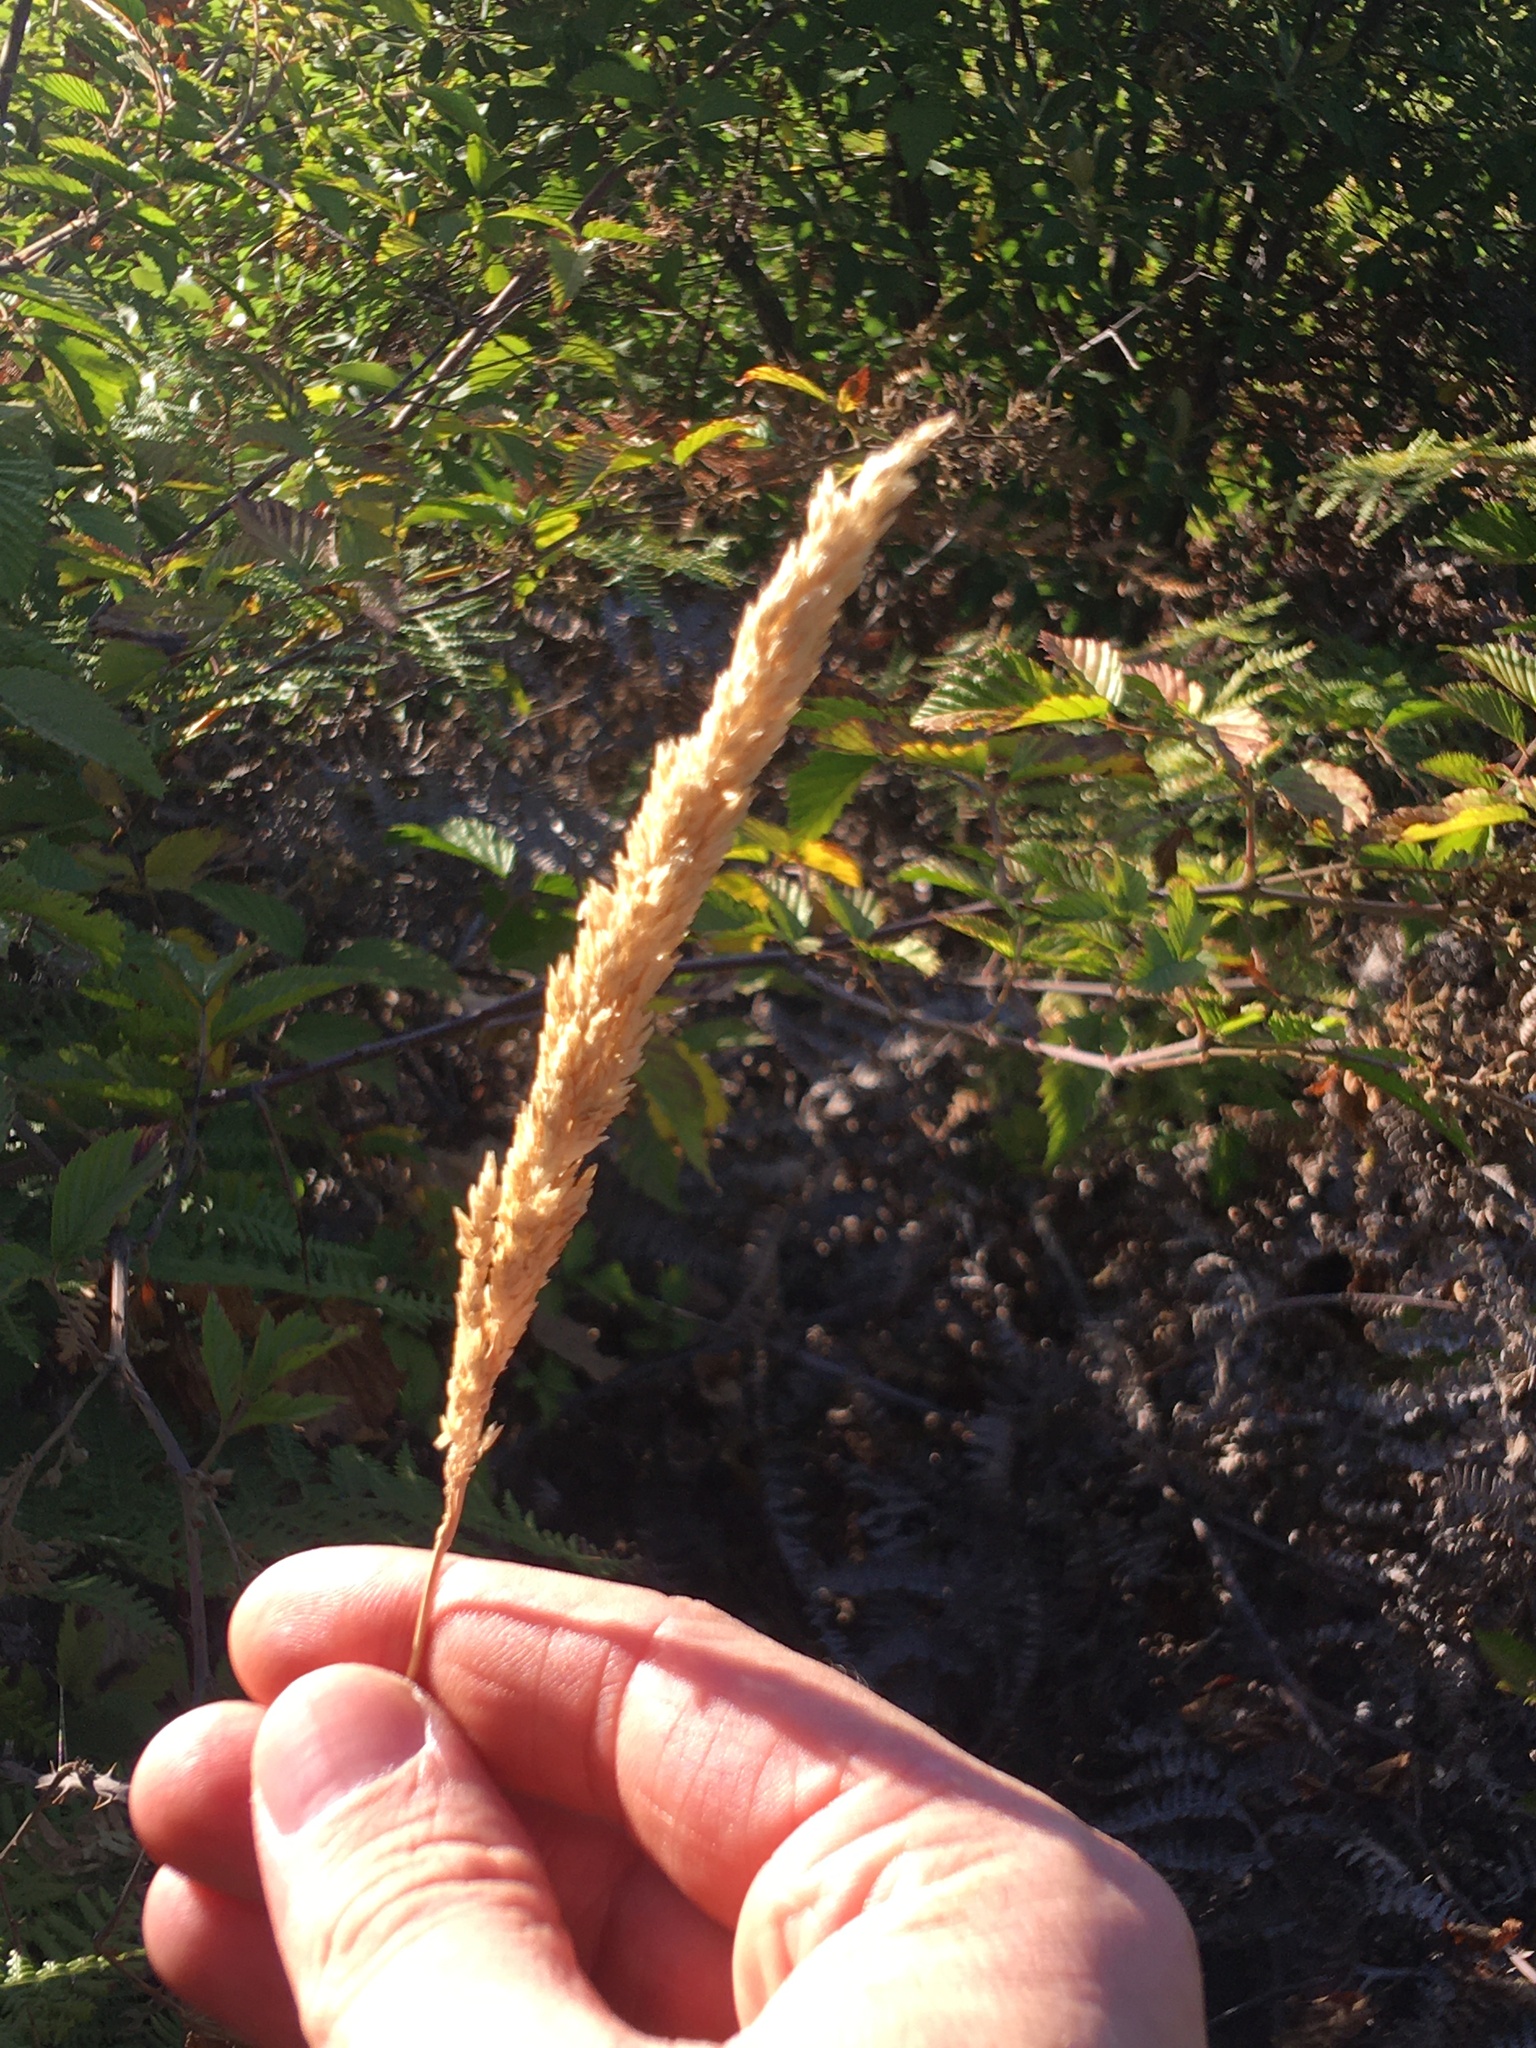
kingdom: Plantae
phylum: Tracheophyta
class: Liliopsida
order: Poales
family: Poaceae
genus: Holcus
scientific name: Holcus lanatus
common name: Yorkshire-fog
